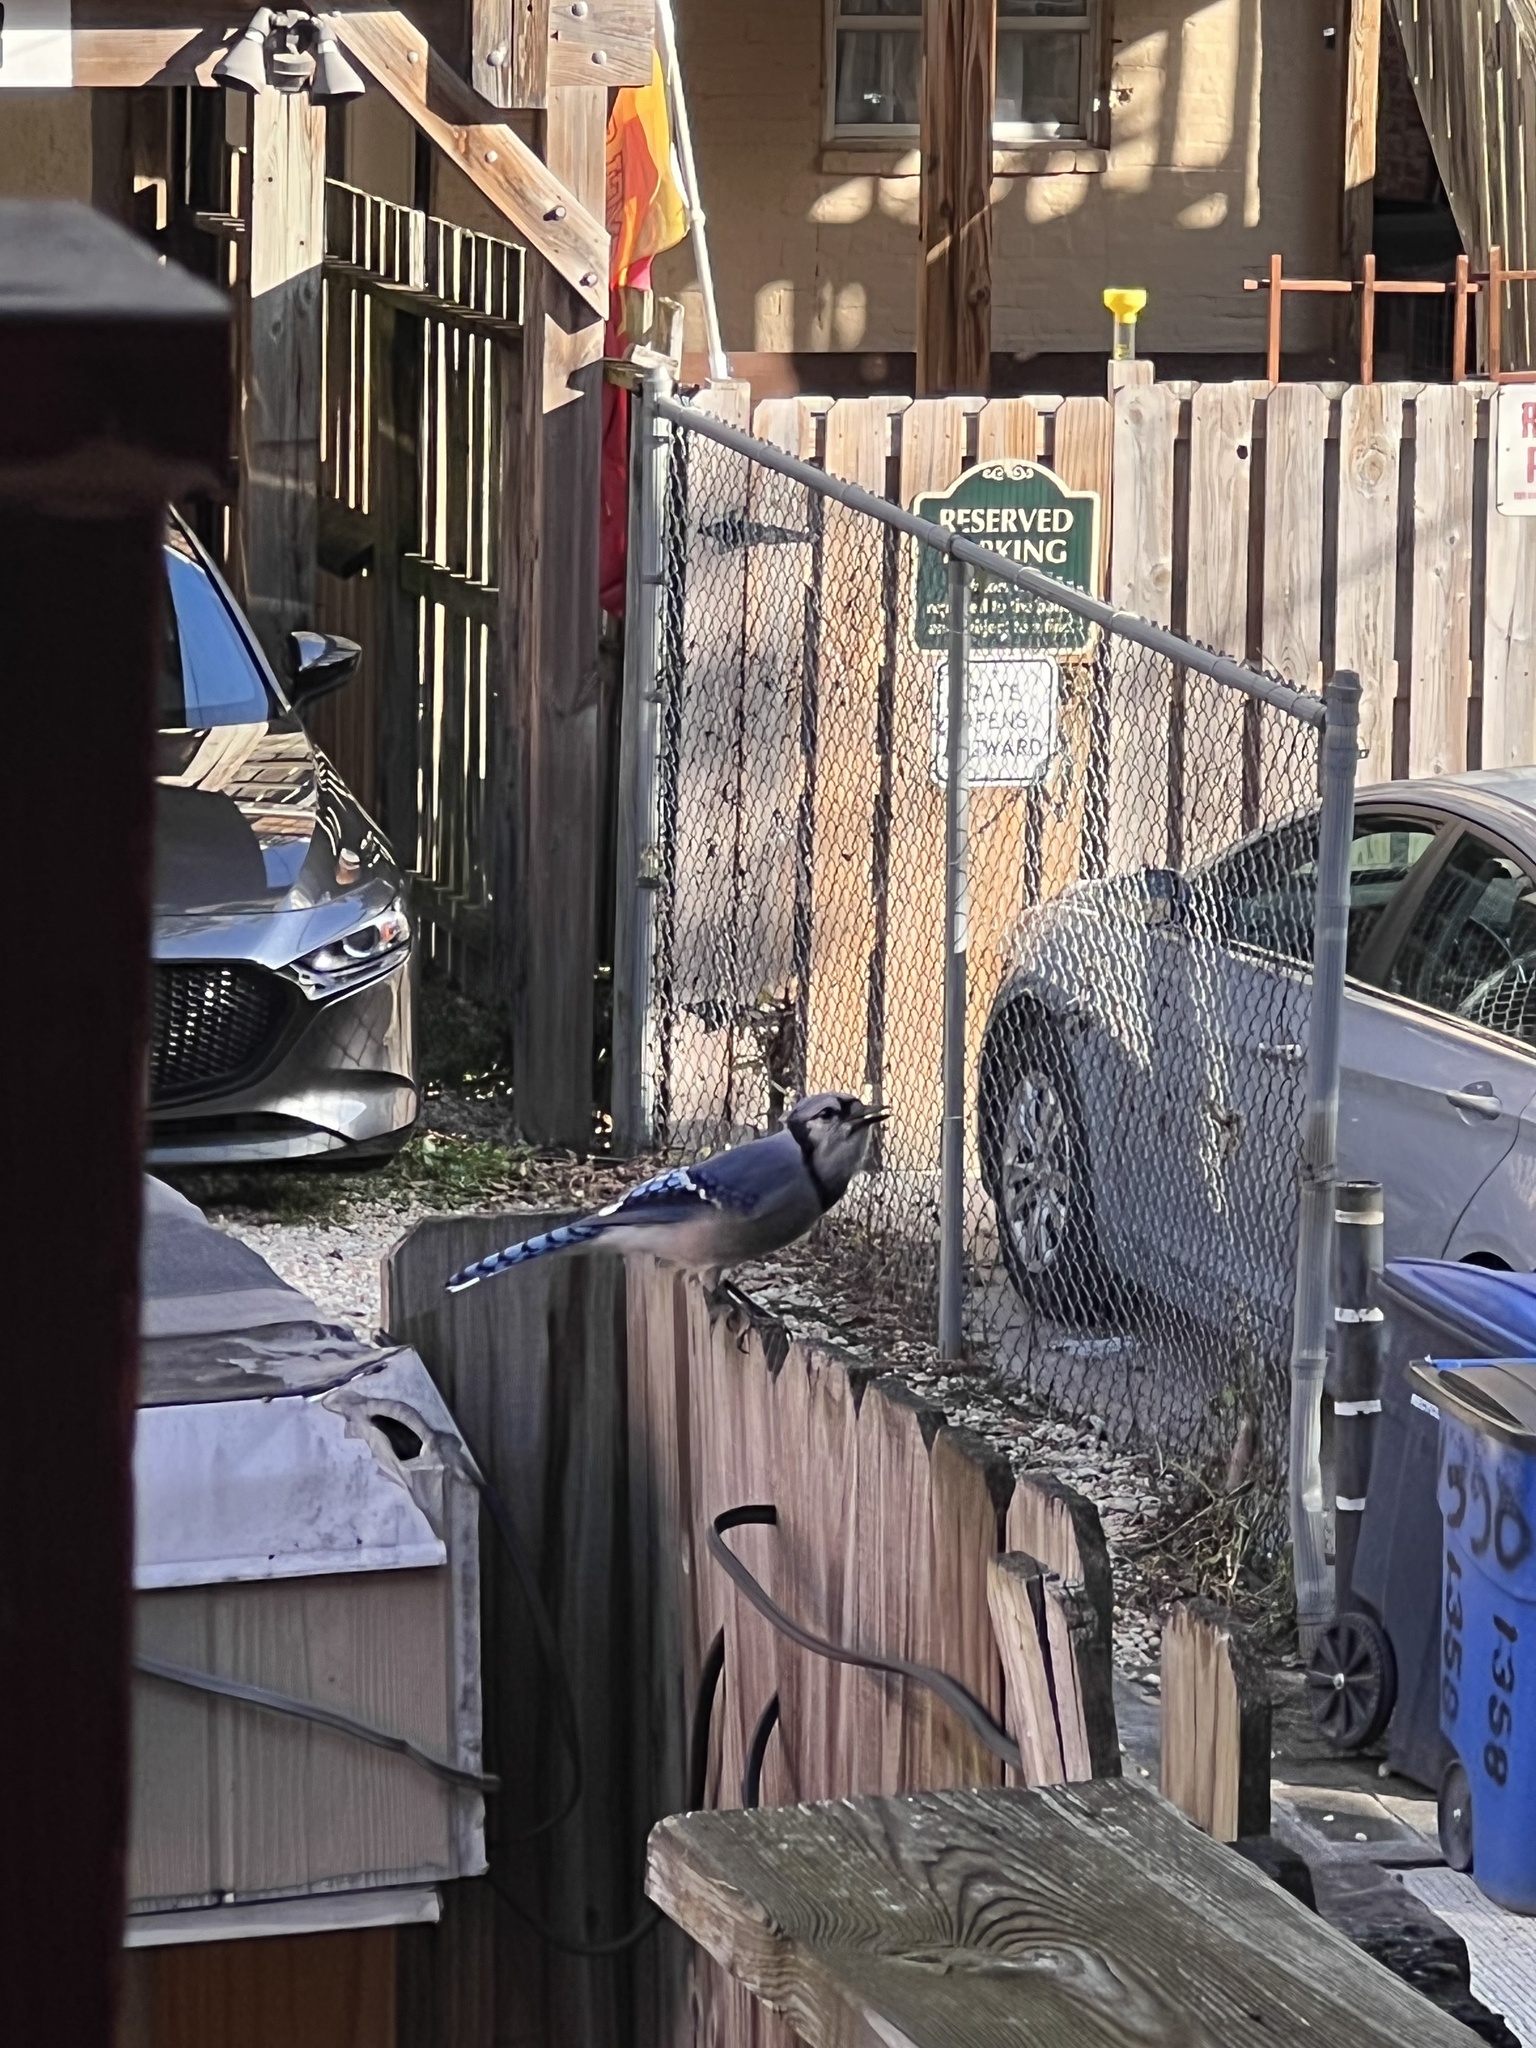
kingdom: Animalia
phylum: Chordata
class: Aves
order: Passeriformes
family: Corvidae
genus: Cyanocitta
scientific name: Cyanocitta cristata
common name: Blue jay
